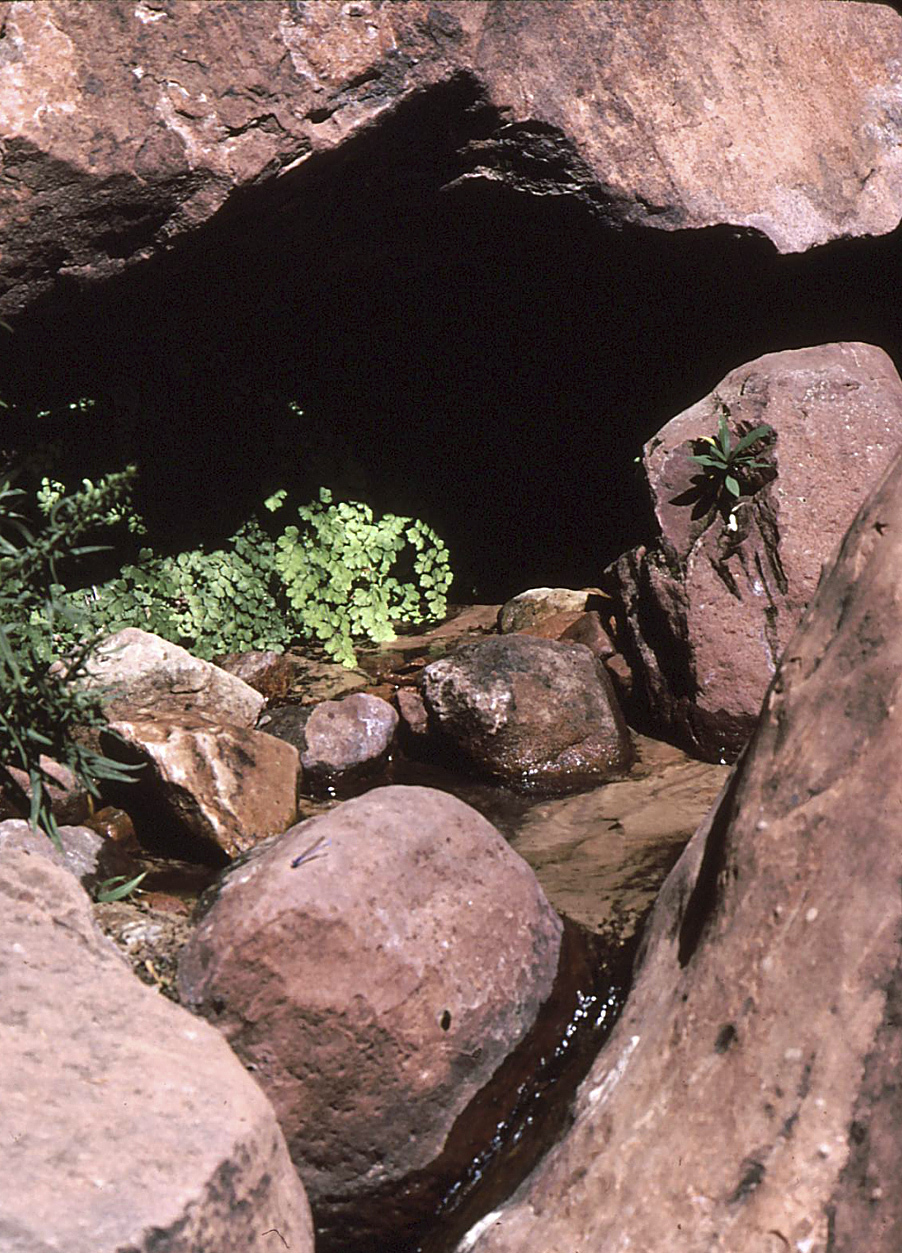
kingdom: Plantae
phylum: Tracheophyta
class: Polypodiopsida
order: Polypodiales
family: Pteridaceae
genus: Adiantum
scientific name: Adiantum capillus-veneris
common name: Maidenhair fern
